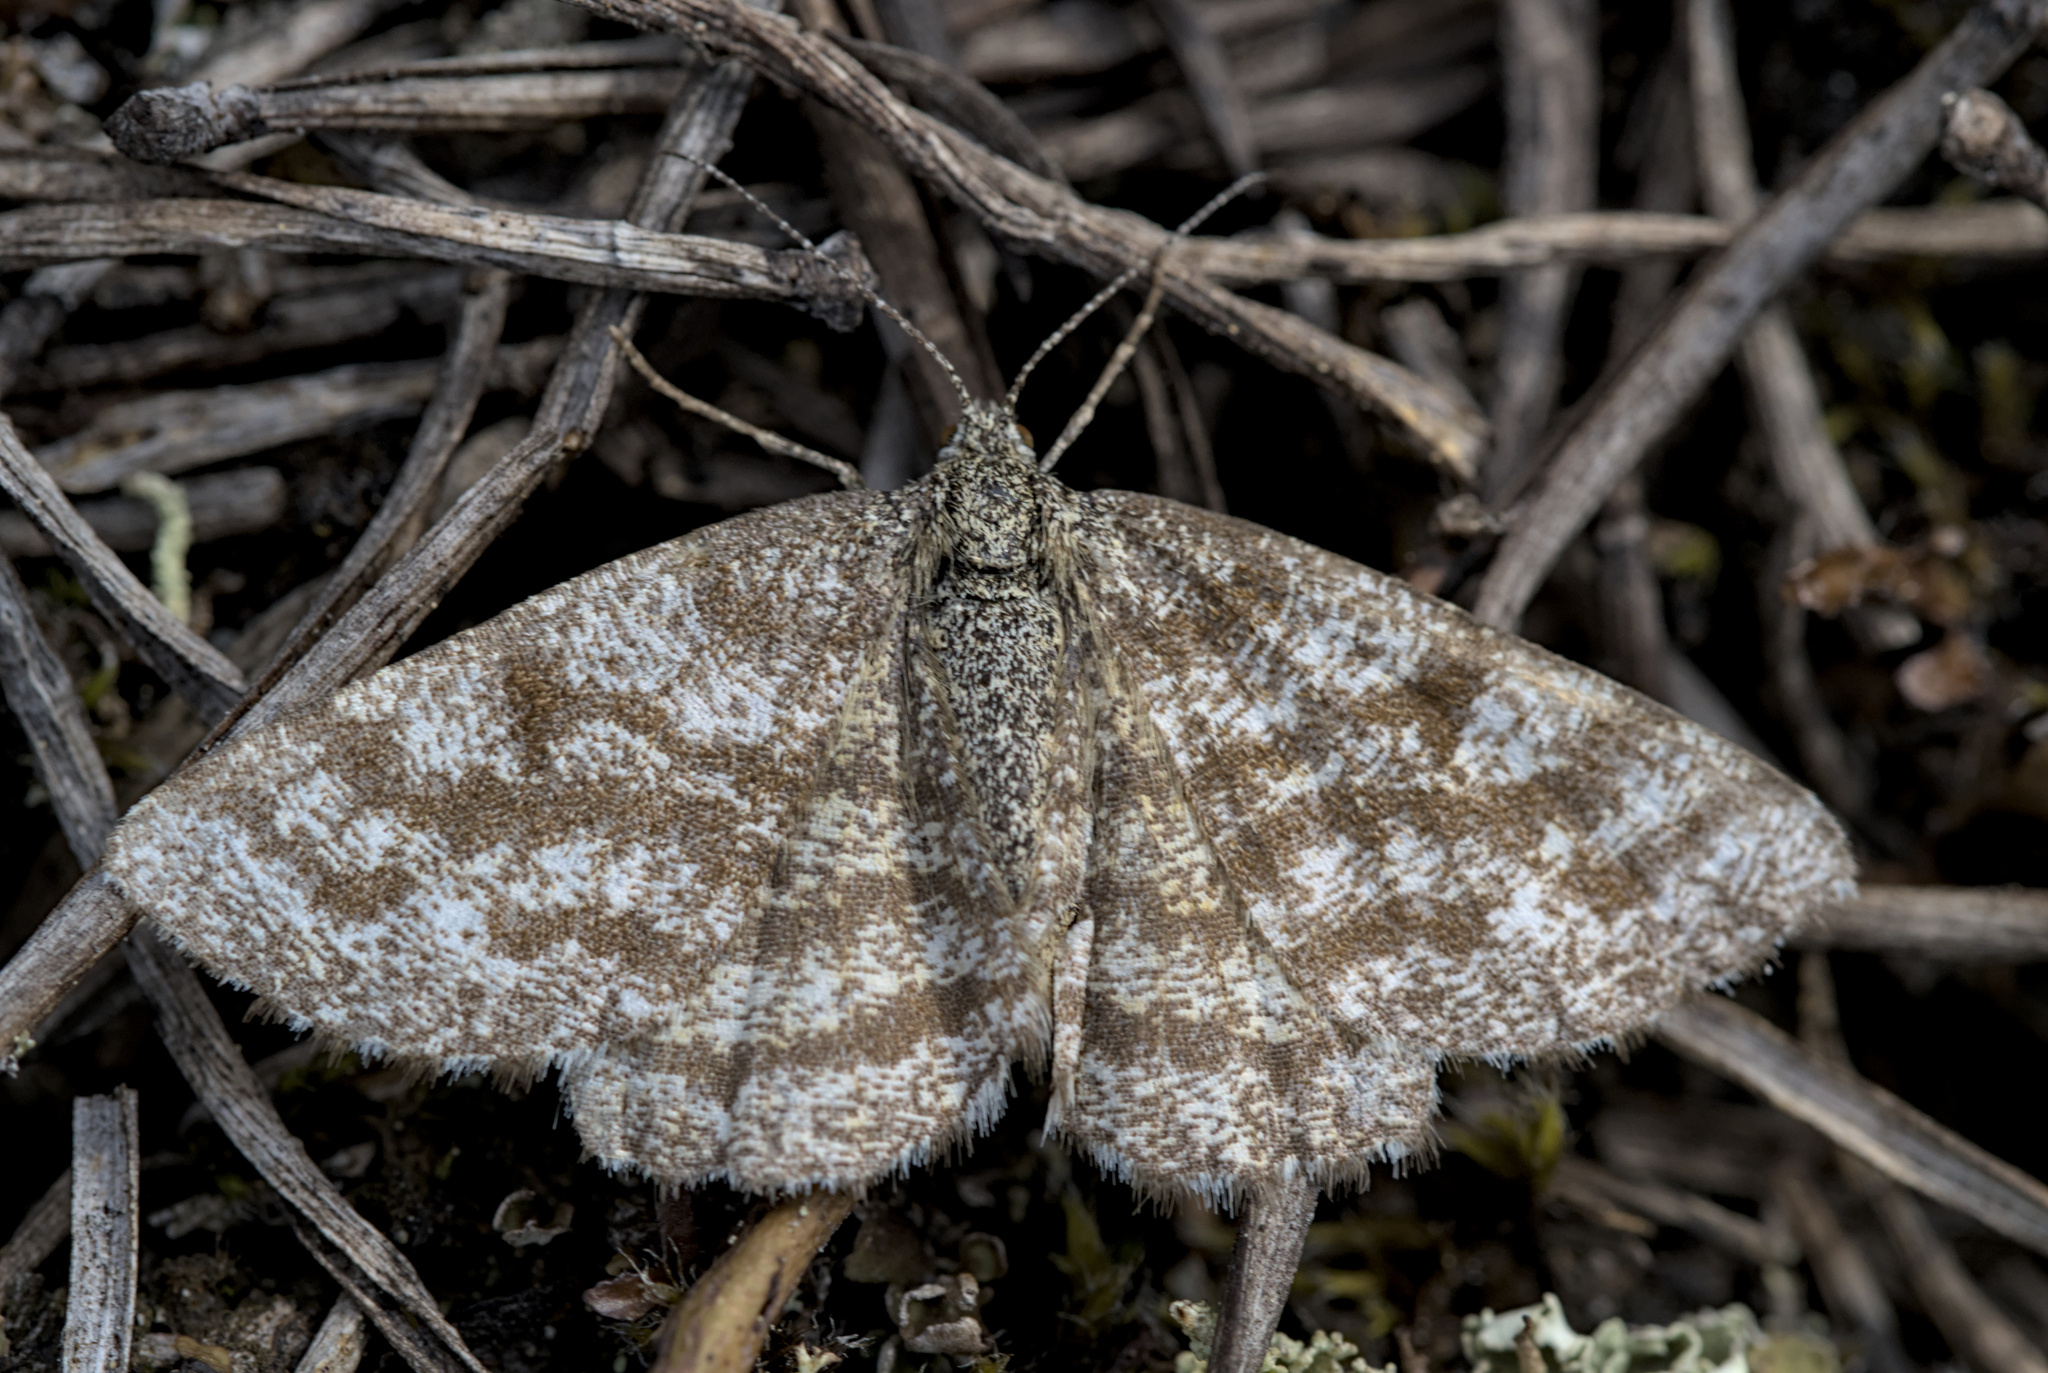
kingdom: Animalia
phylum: Arthropoda
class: Insecta
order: Lepidoptera
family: Geometridae
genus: Ematurga
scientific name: Ematurga atomaria
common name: Common heath
